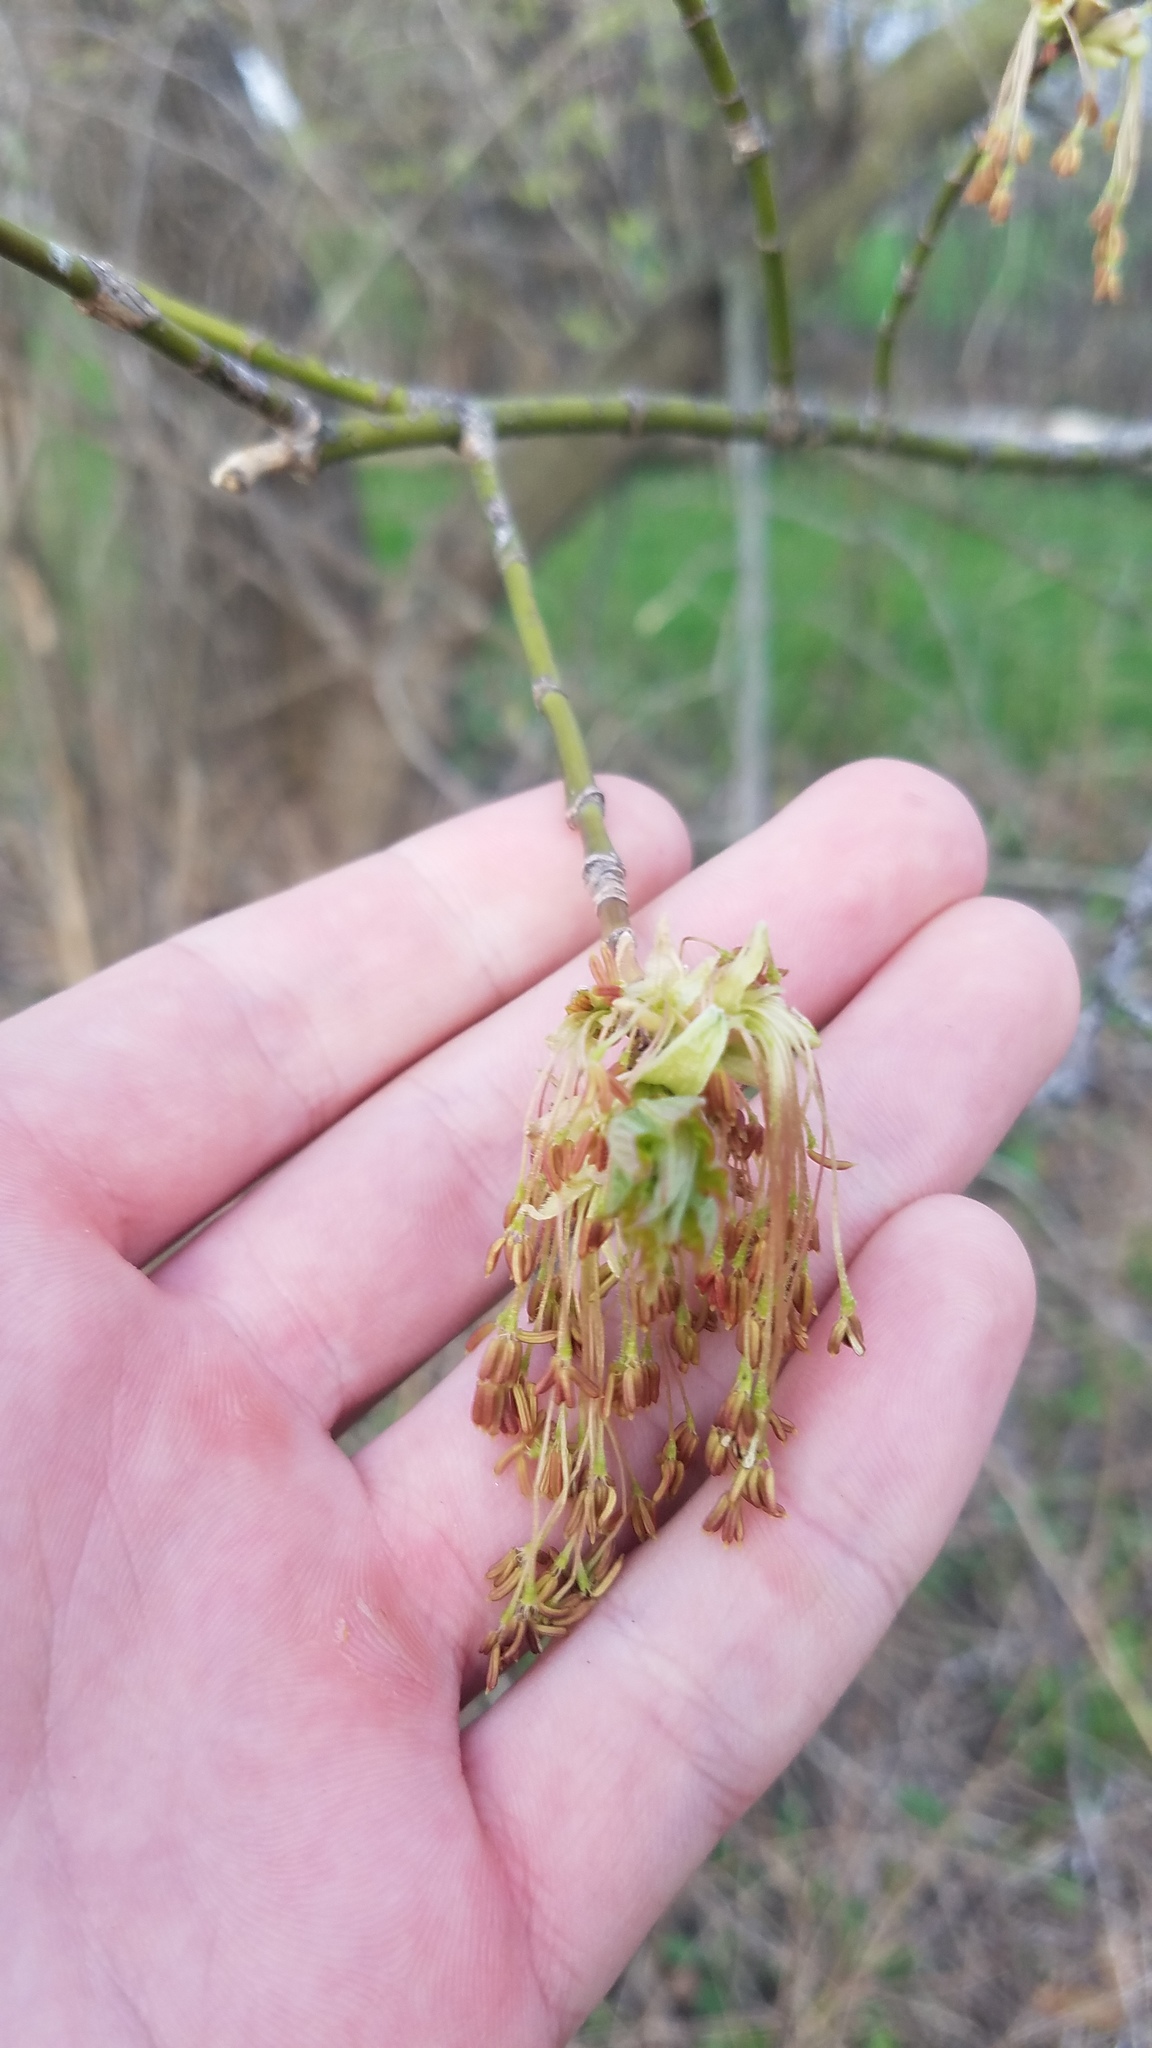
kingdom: Plantae
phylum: Tracheophyta
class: Magnoliopsida
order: Sapindales
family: Sapindaceae
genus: Acer
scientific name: Acer negundo
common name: Ashleaf maple
